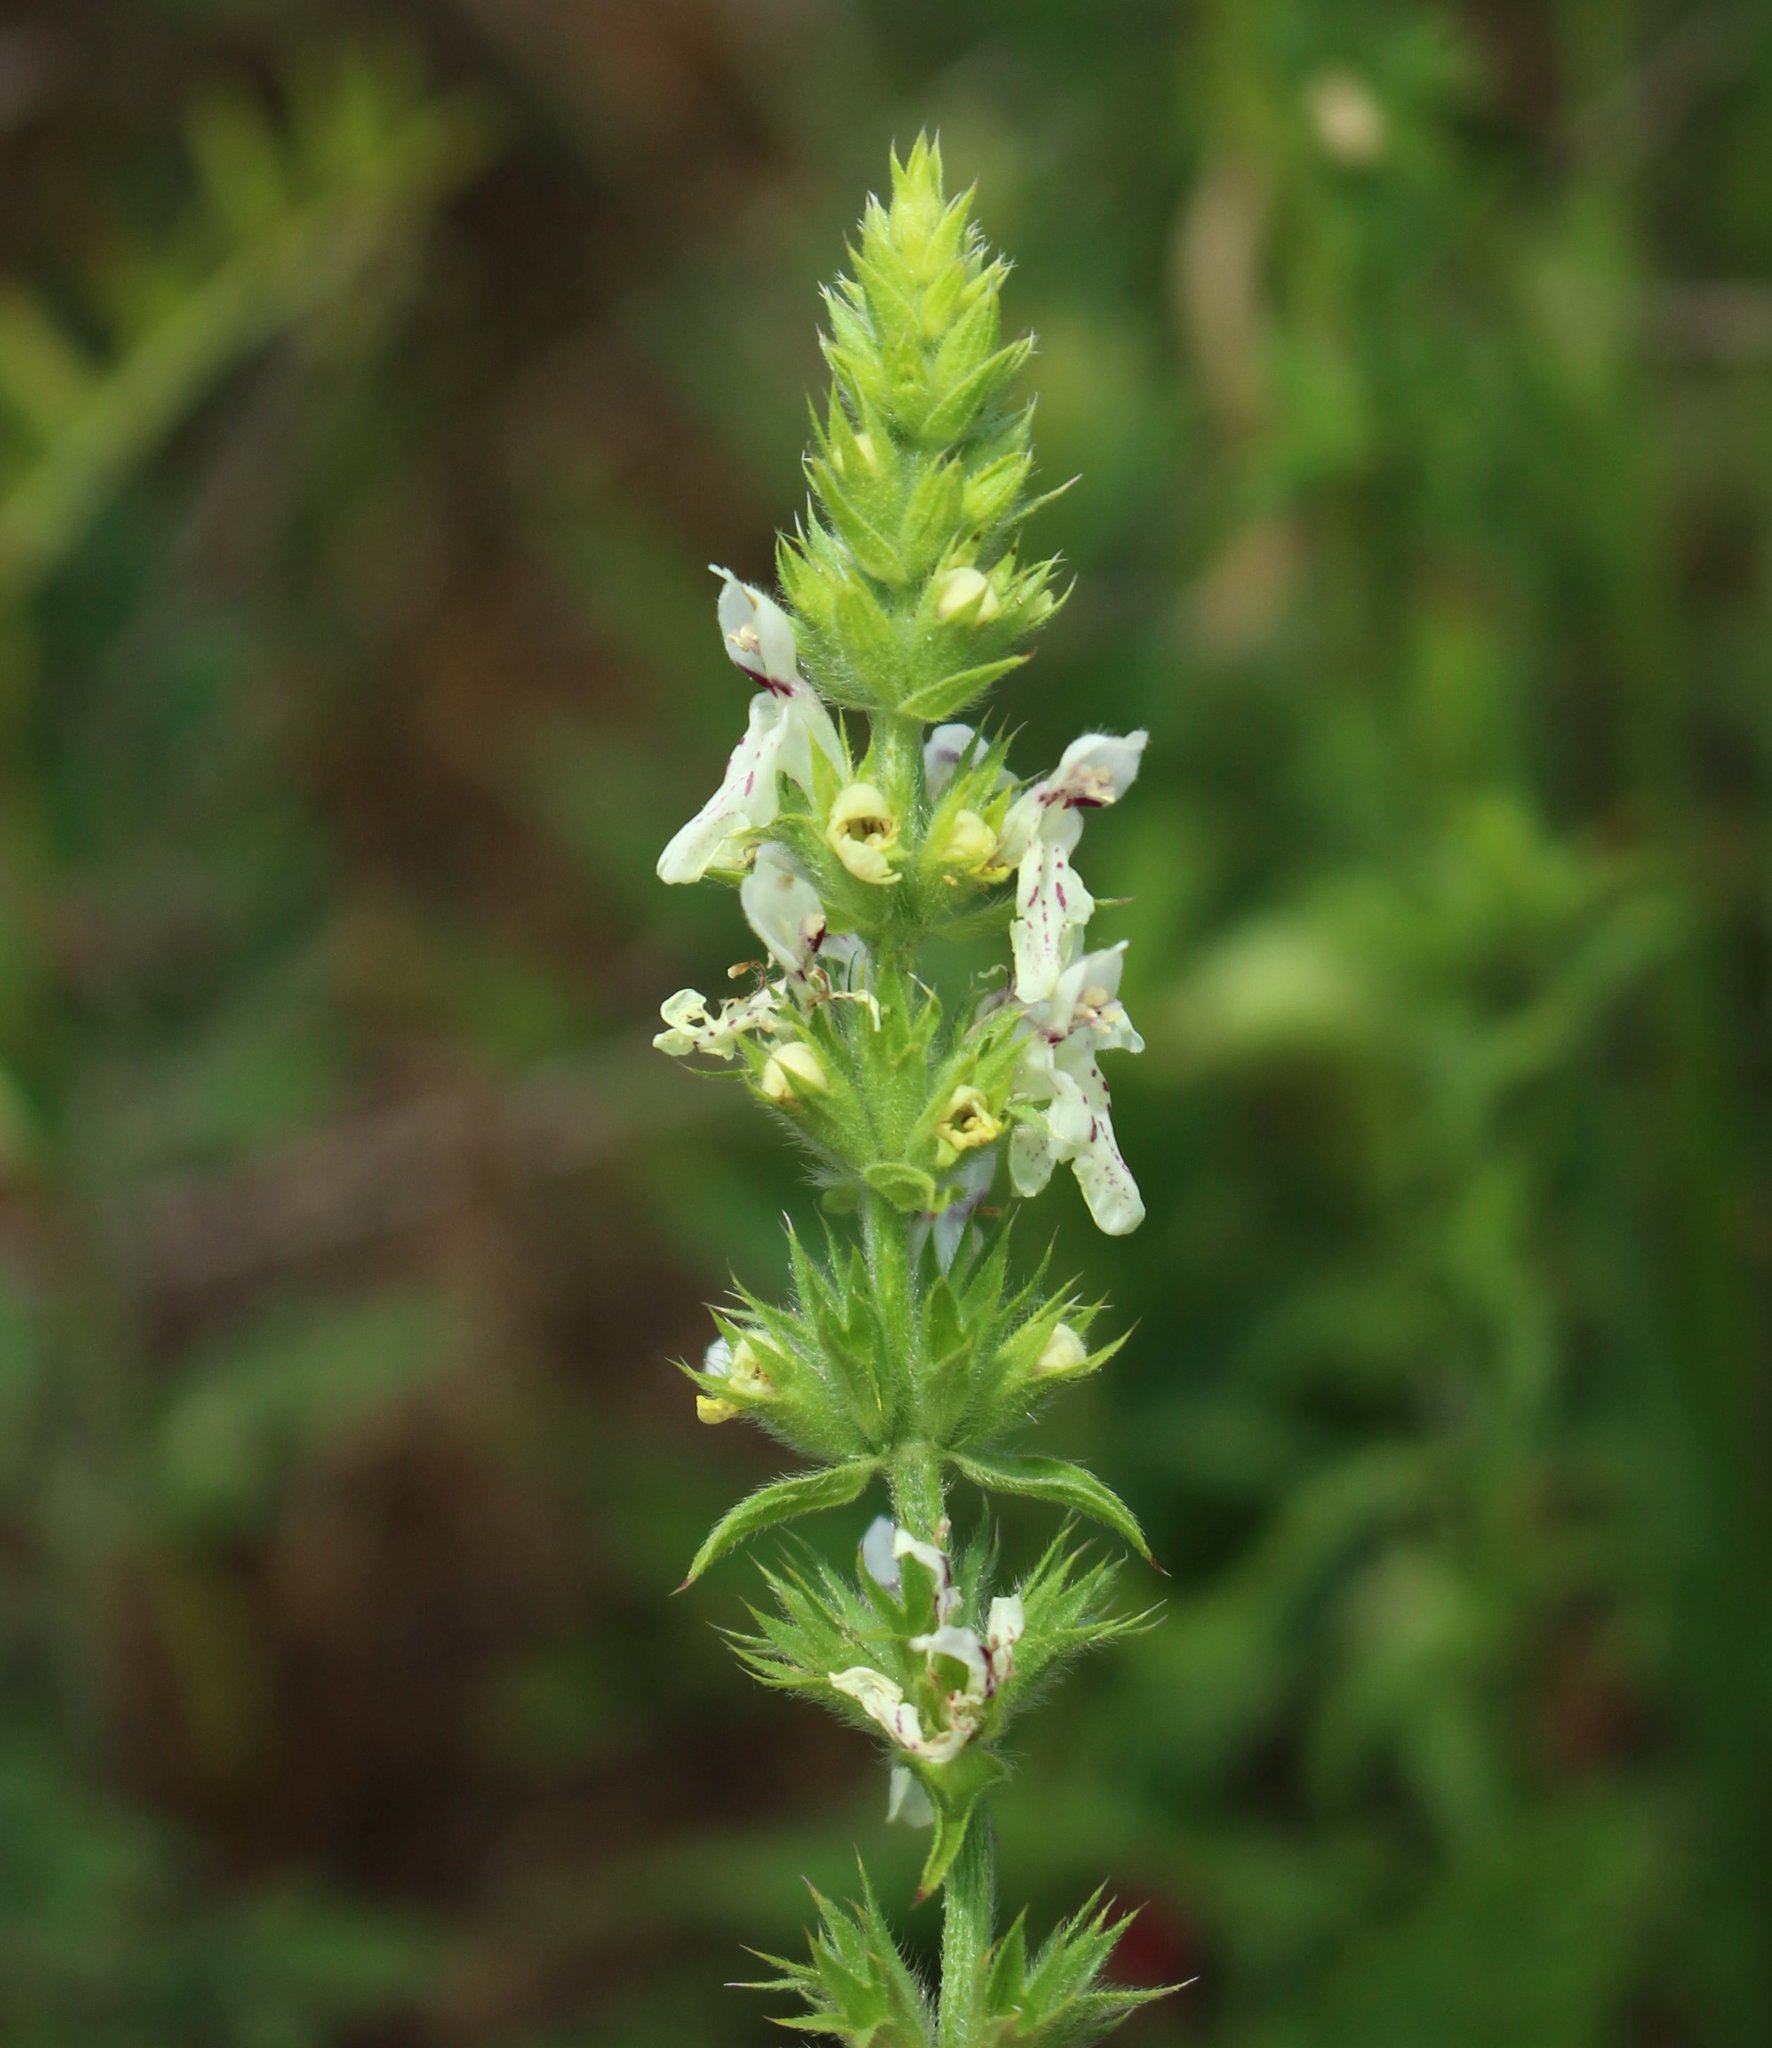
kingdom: Plantae
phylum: Tracheophyta
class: Magnoliopsida
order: Lamiales
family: Lamiaceae
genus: Stachys
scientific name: Stachys atherocalyx
